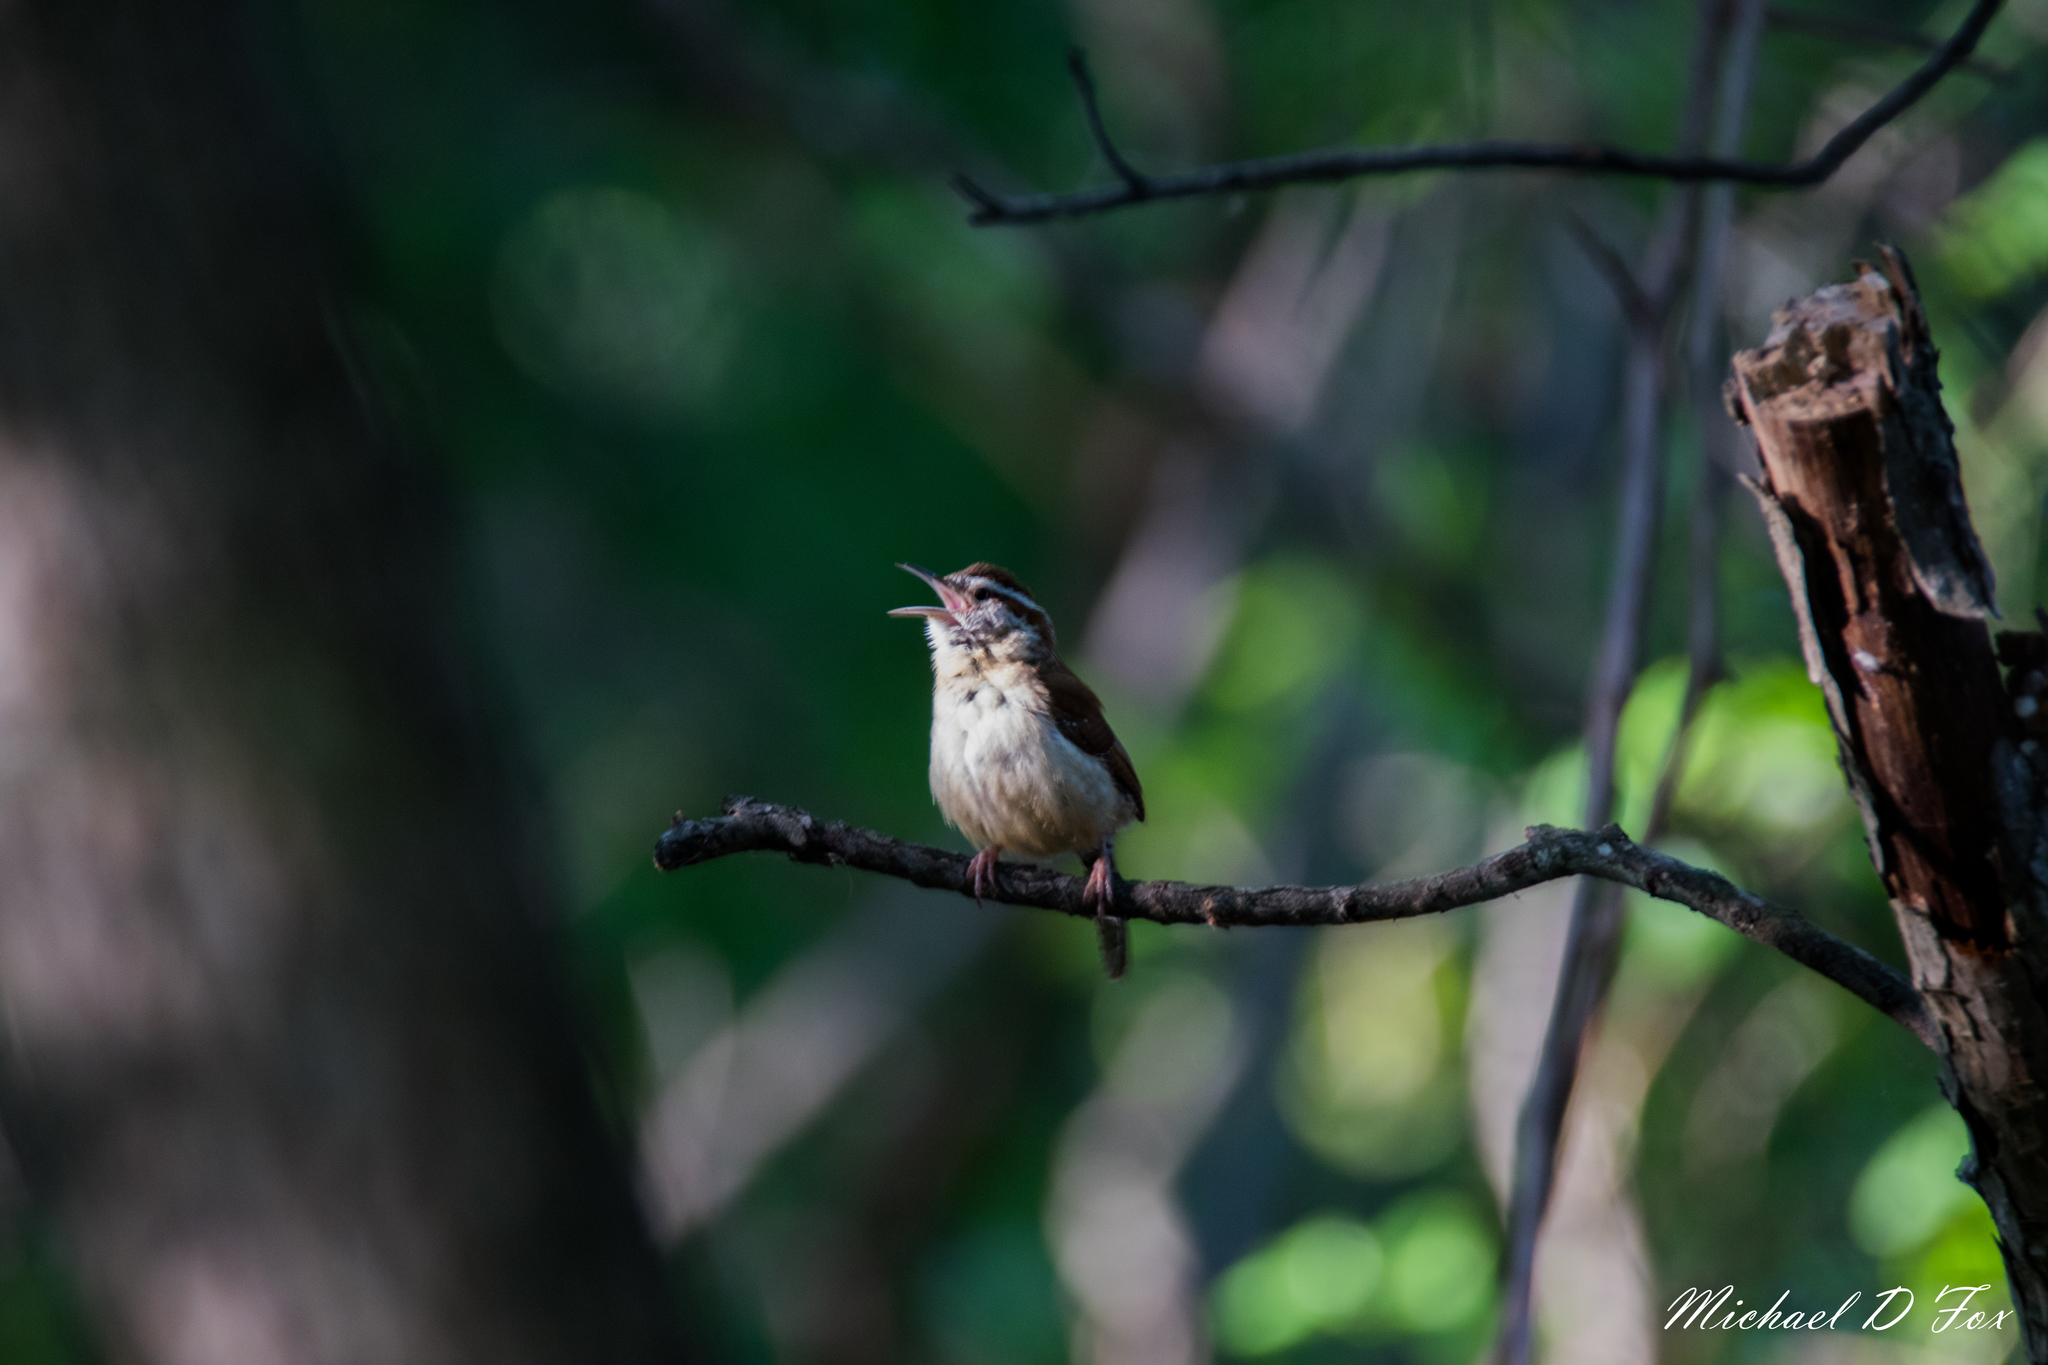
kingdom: Animalia
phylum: Chordata
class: Aves
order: Passeriformes
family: Troglodytidae
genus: Thryothorus
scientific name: Thryothorus ludovicianus
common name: Carolina wren
